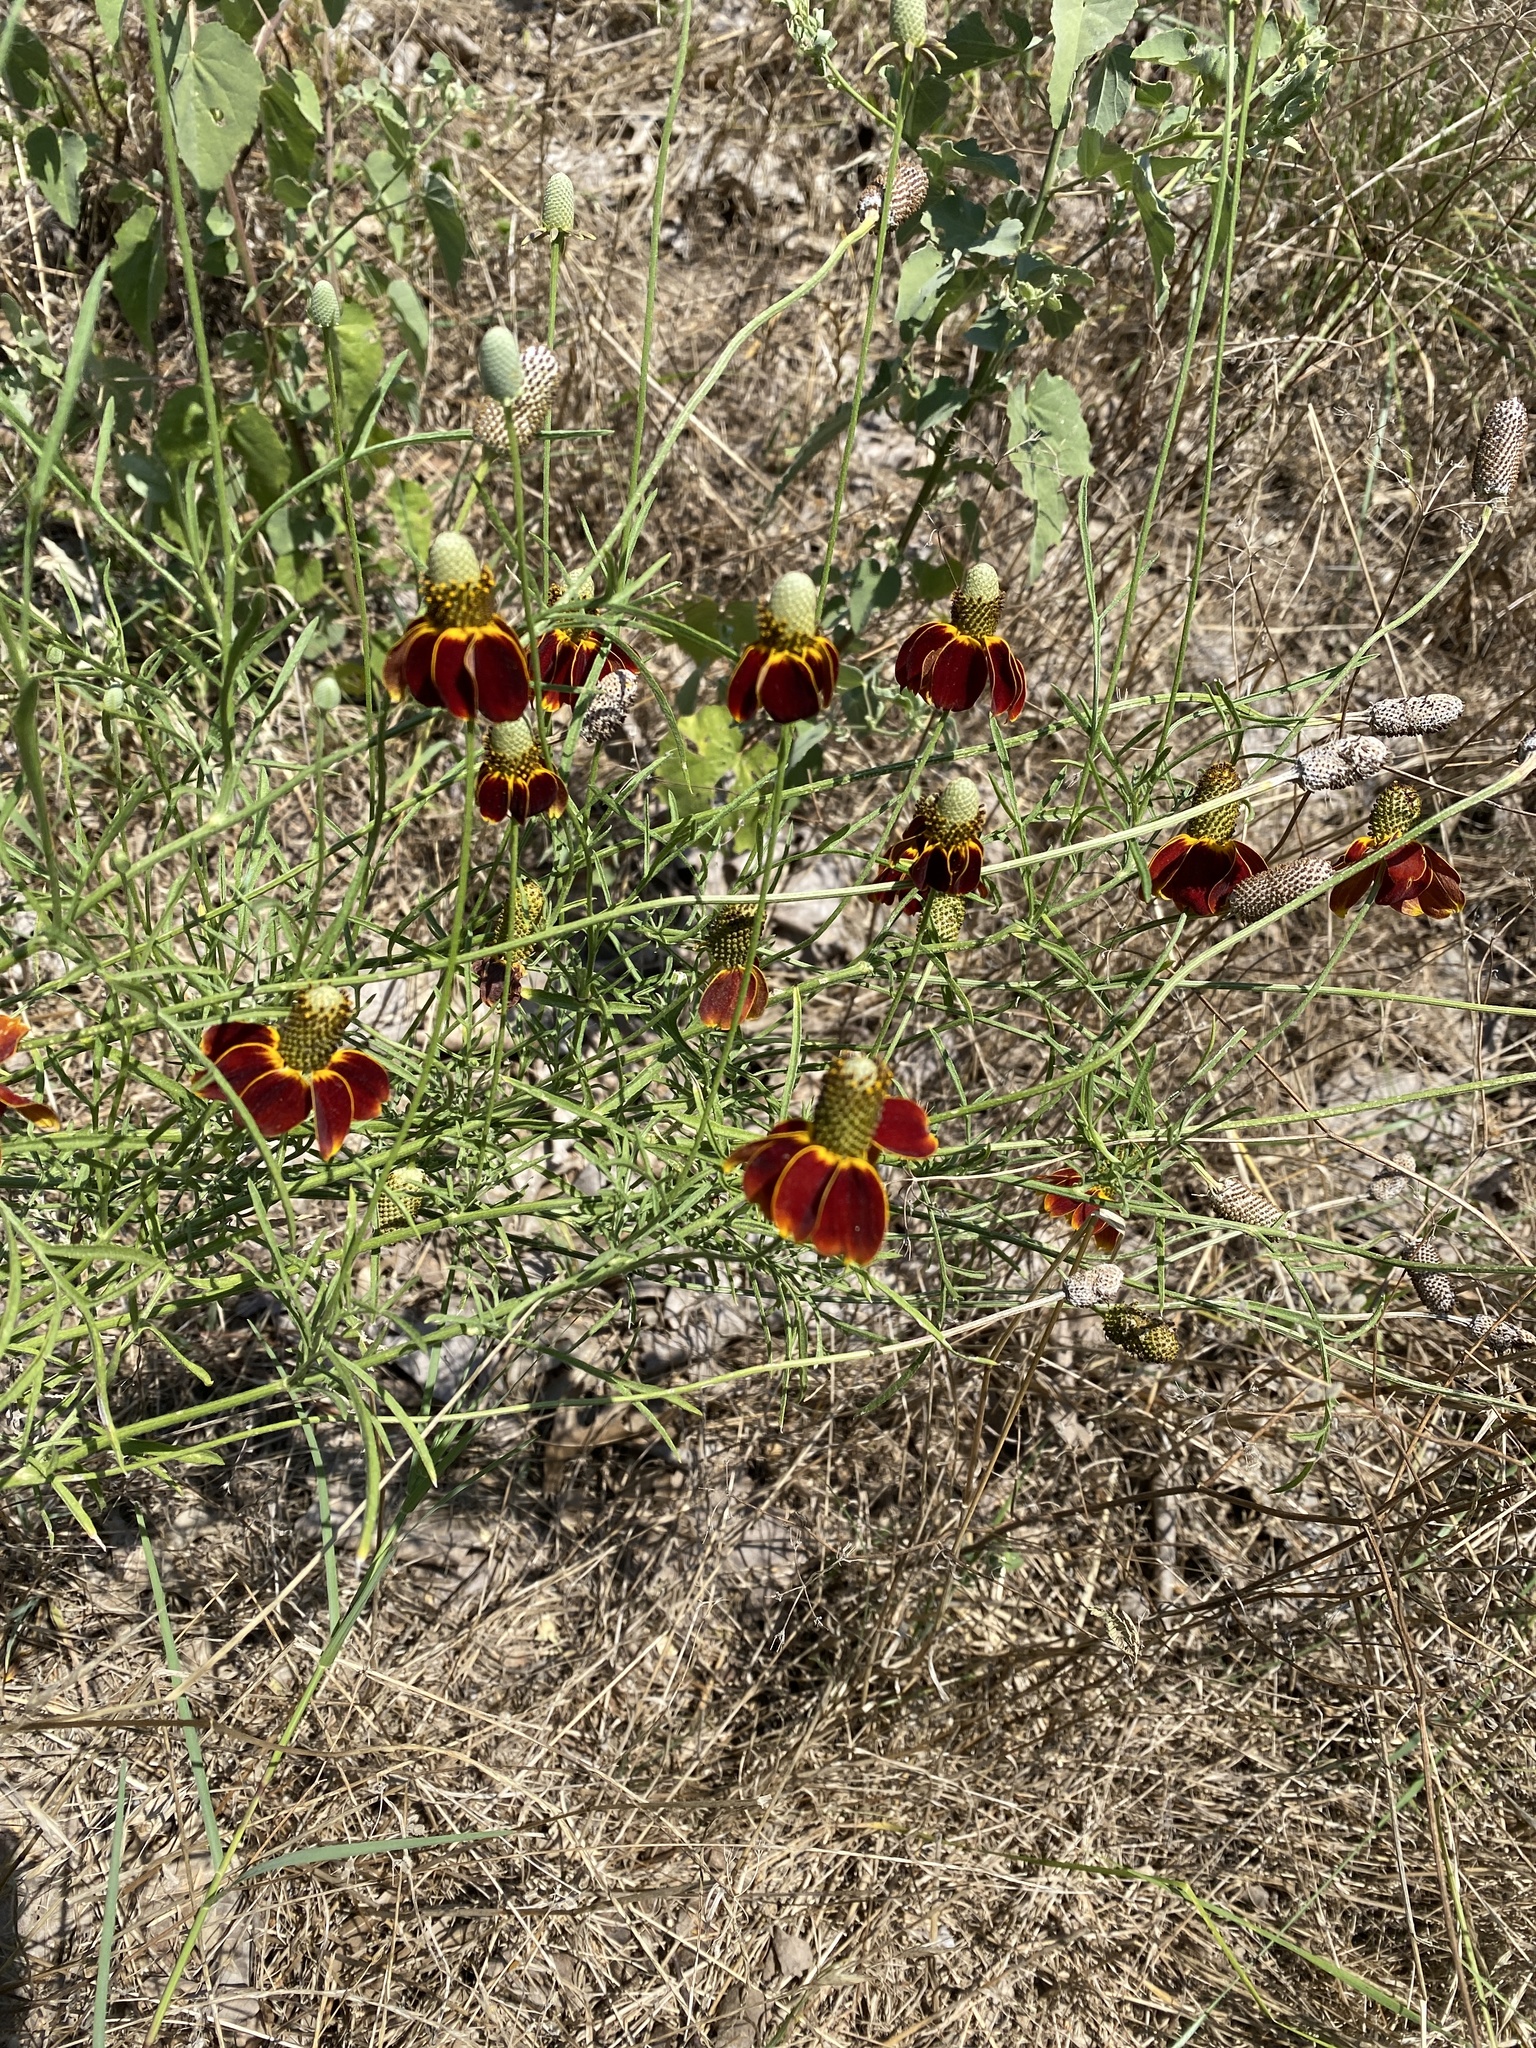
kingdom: Plantae
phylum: Tracheophyta
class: Magnoliopsida
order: Asterales
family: Asteraceae
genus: Ratibida
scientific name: Ratibida columnifera
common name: Prairie coneflower
